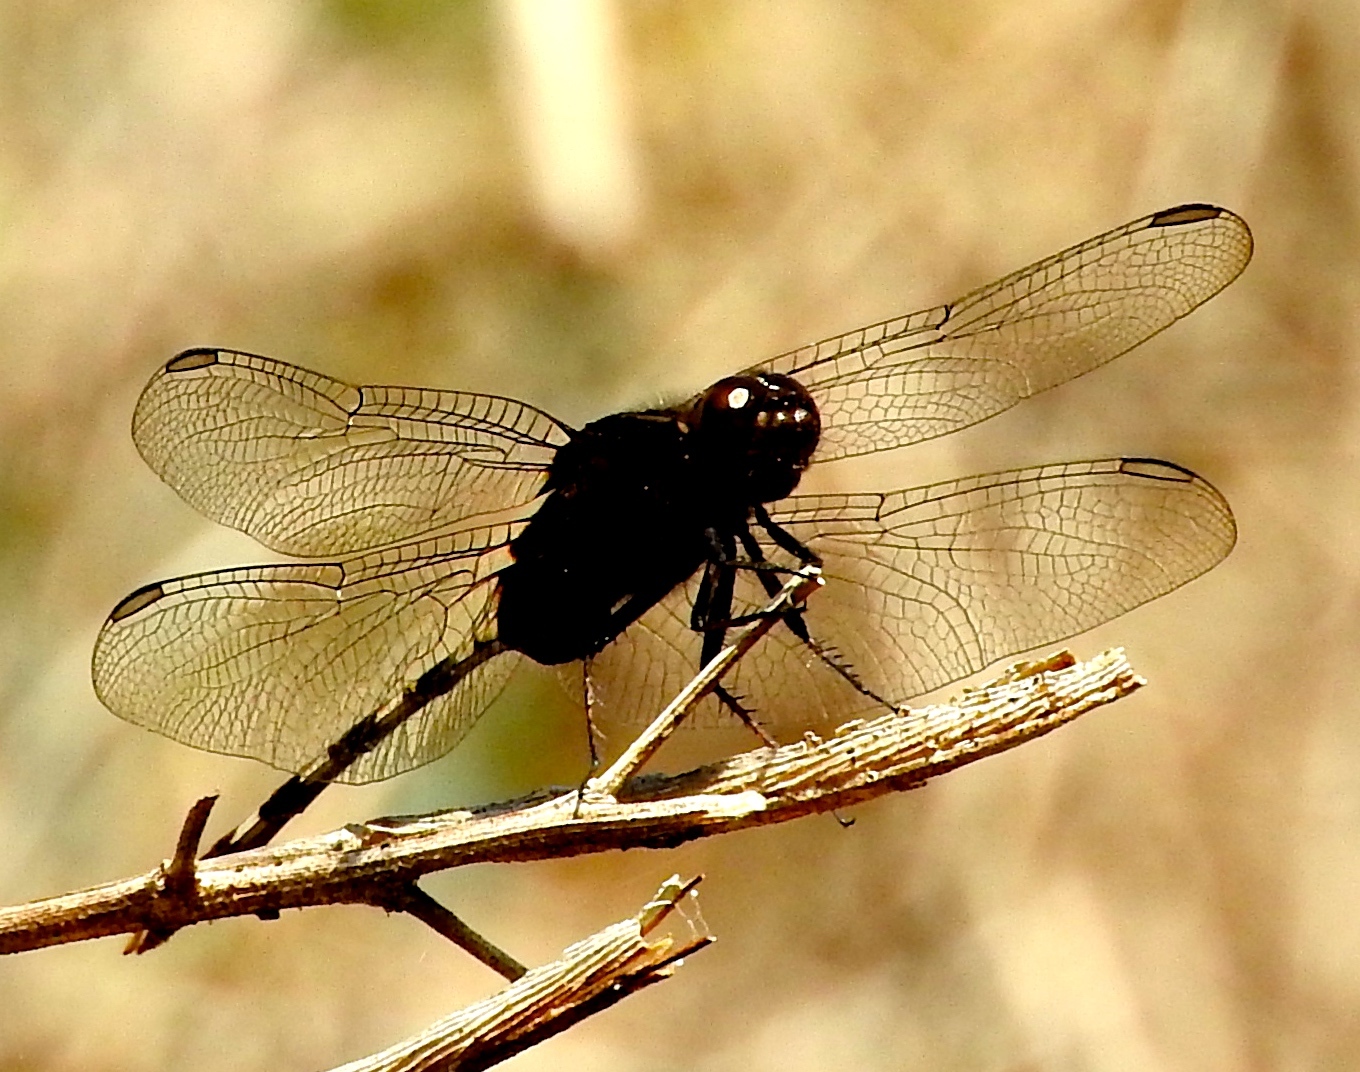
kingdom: Animalia
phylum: Arthropoda
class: Insecta
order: Odonata
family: Libellulidae
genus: Erythemis
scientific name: Erythemis plebeja
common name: Pin-tailed pondhawk
